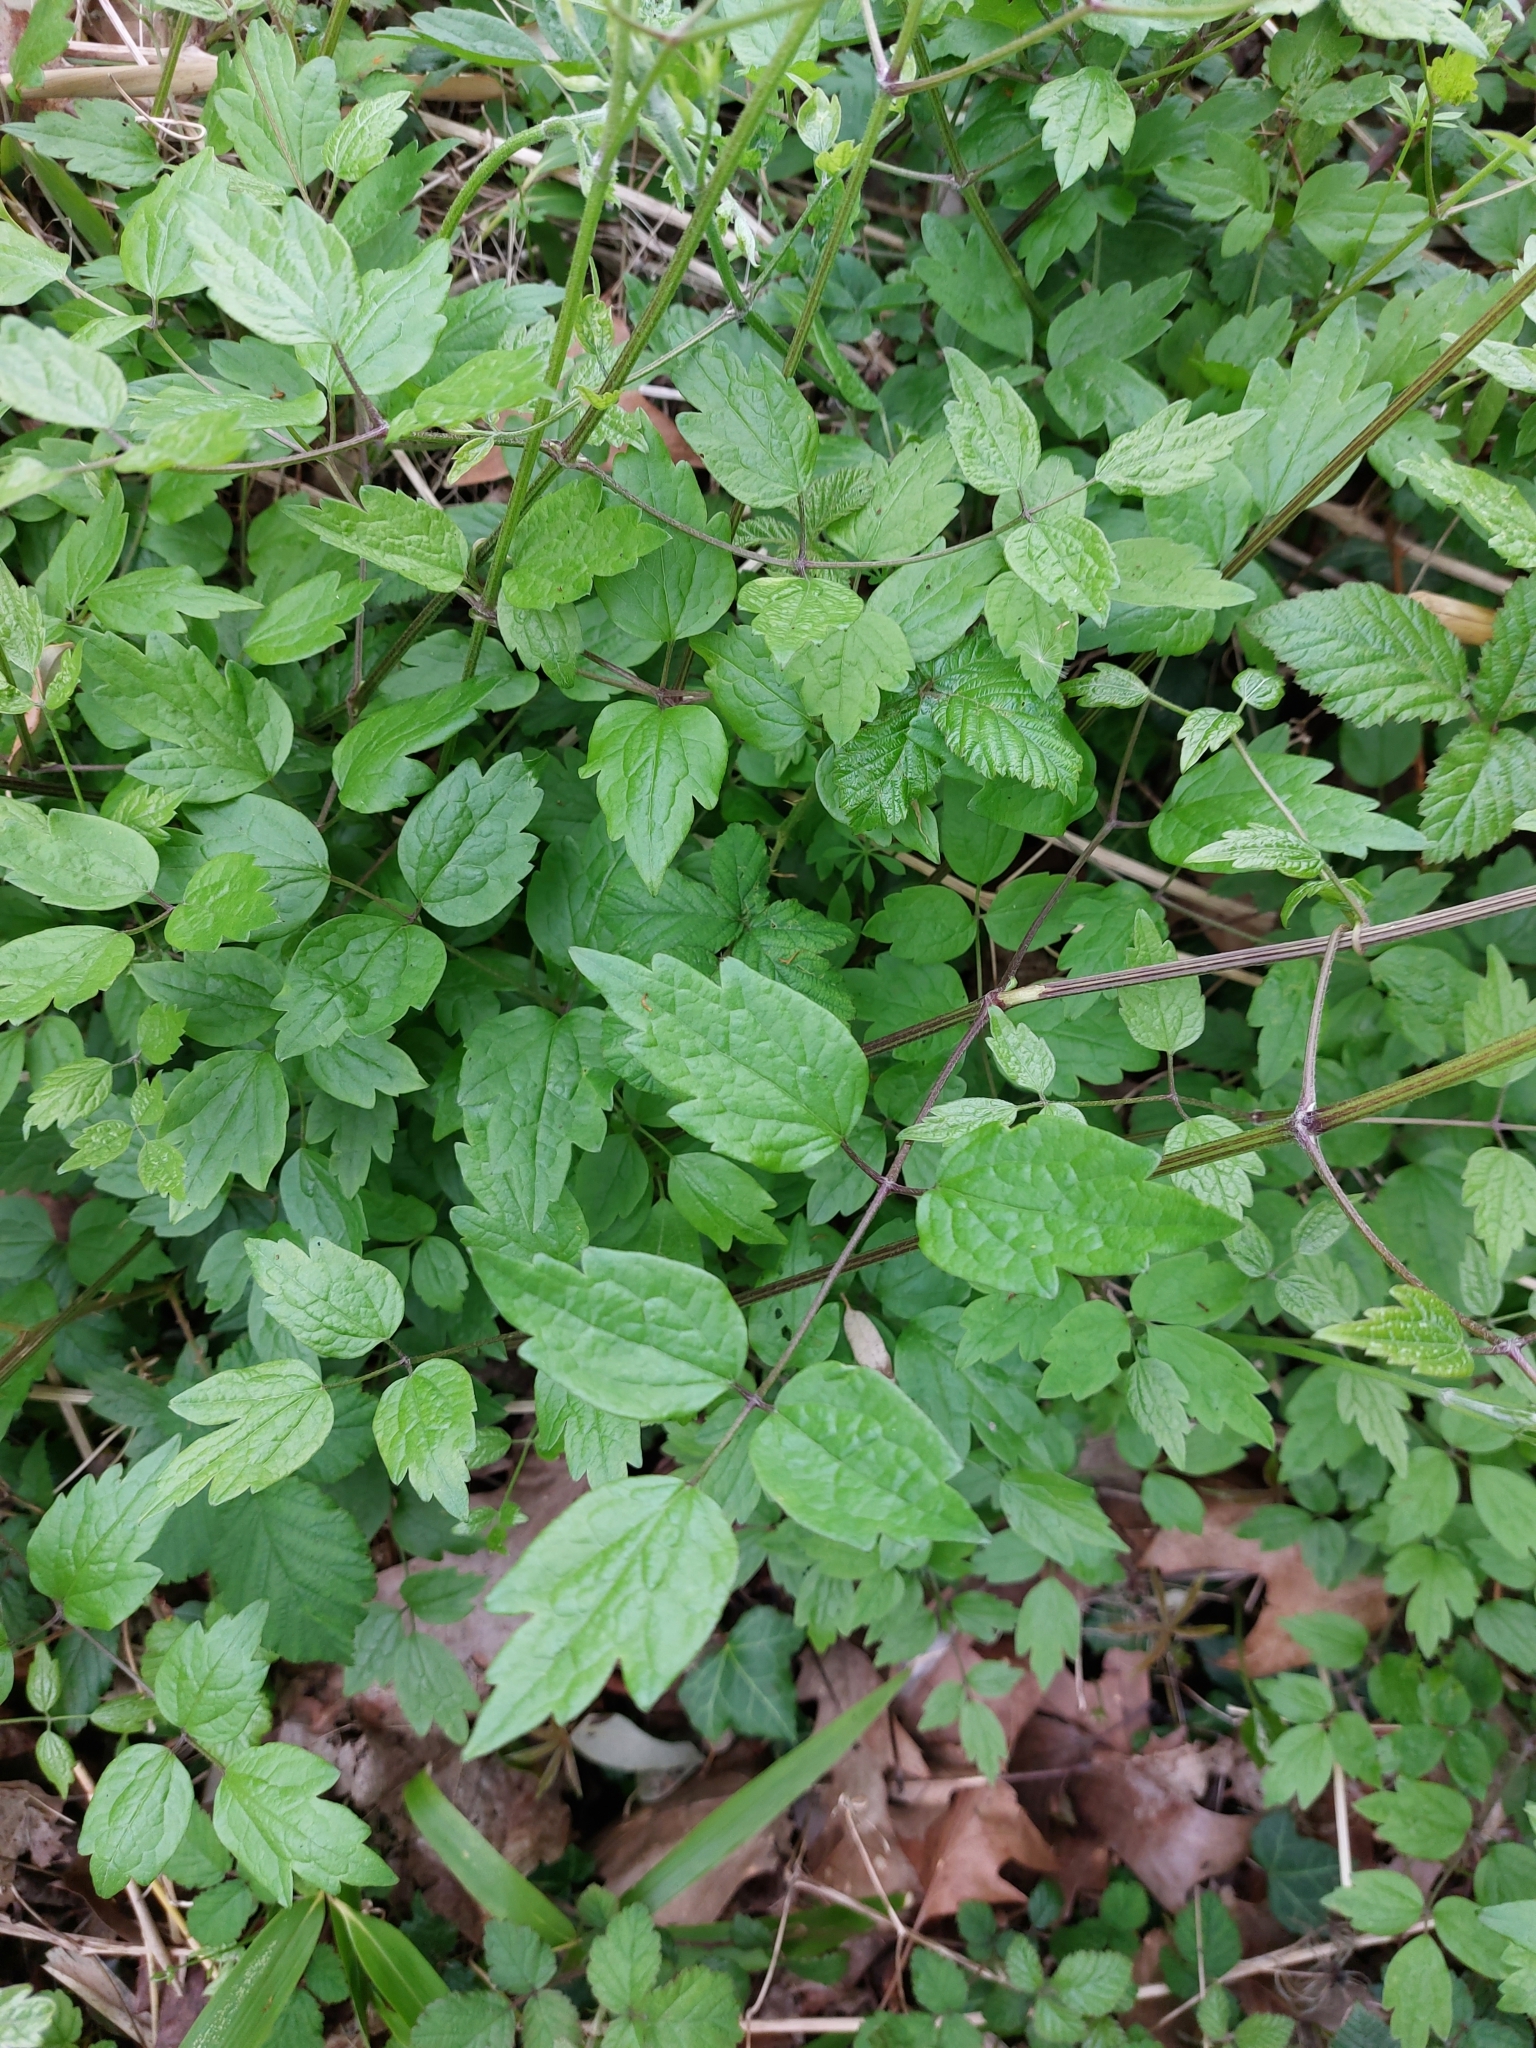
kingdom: Plantae
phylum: Tracheophyta
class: Magnoliopsida
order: Ranunculales
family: Ranunculaceae
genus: Clematis
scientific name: Clematis vitalba
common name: Evergreen clematis
